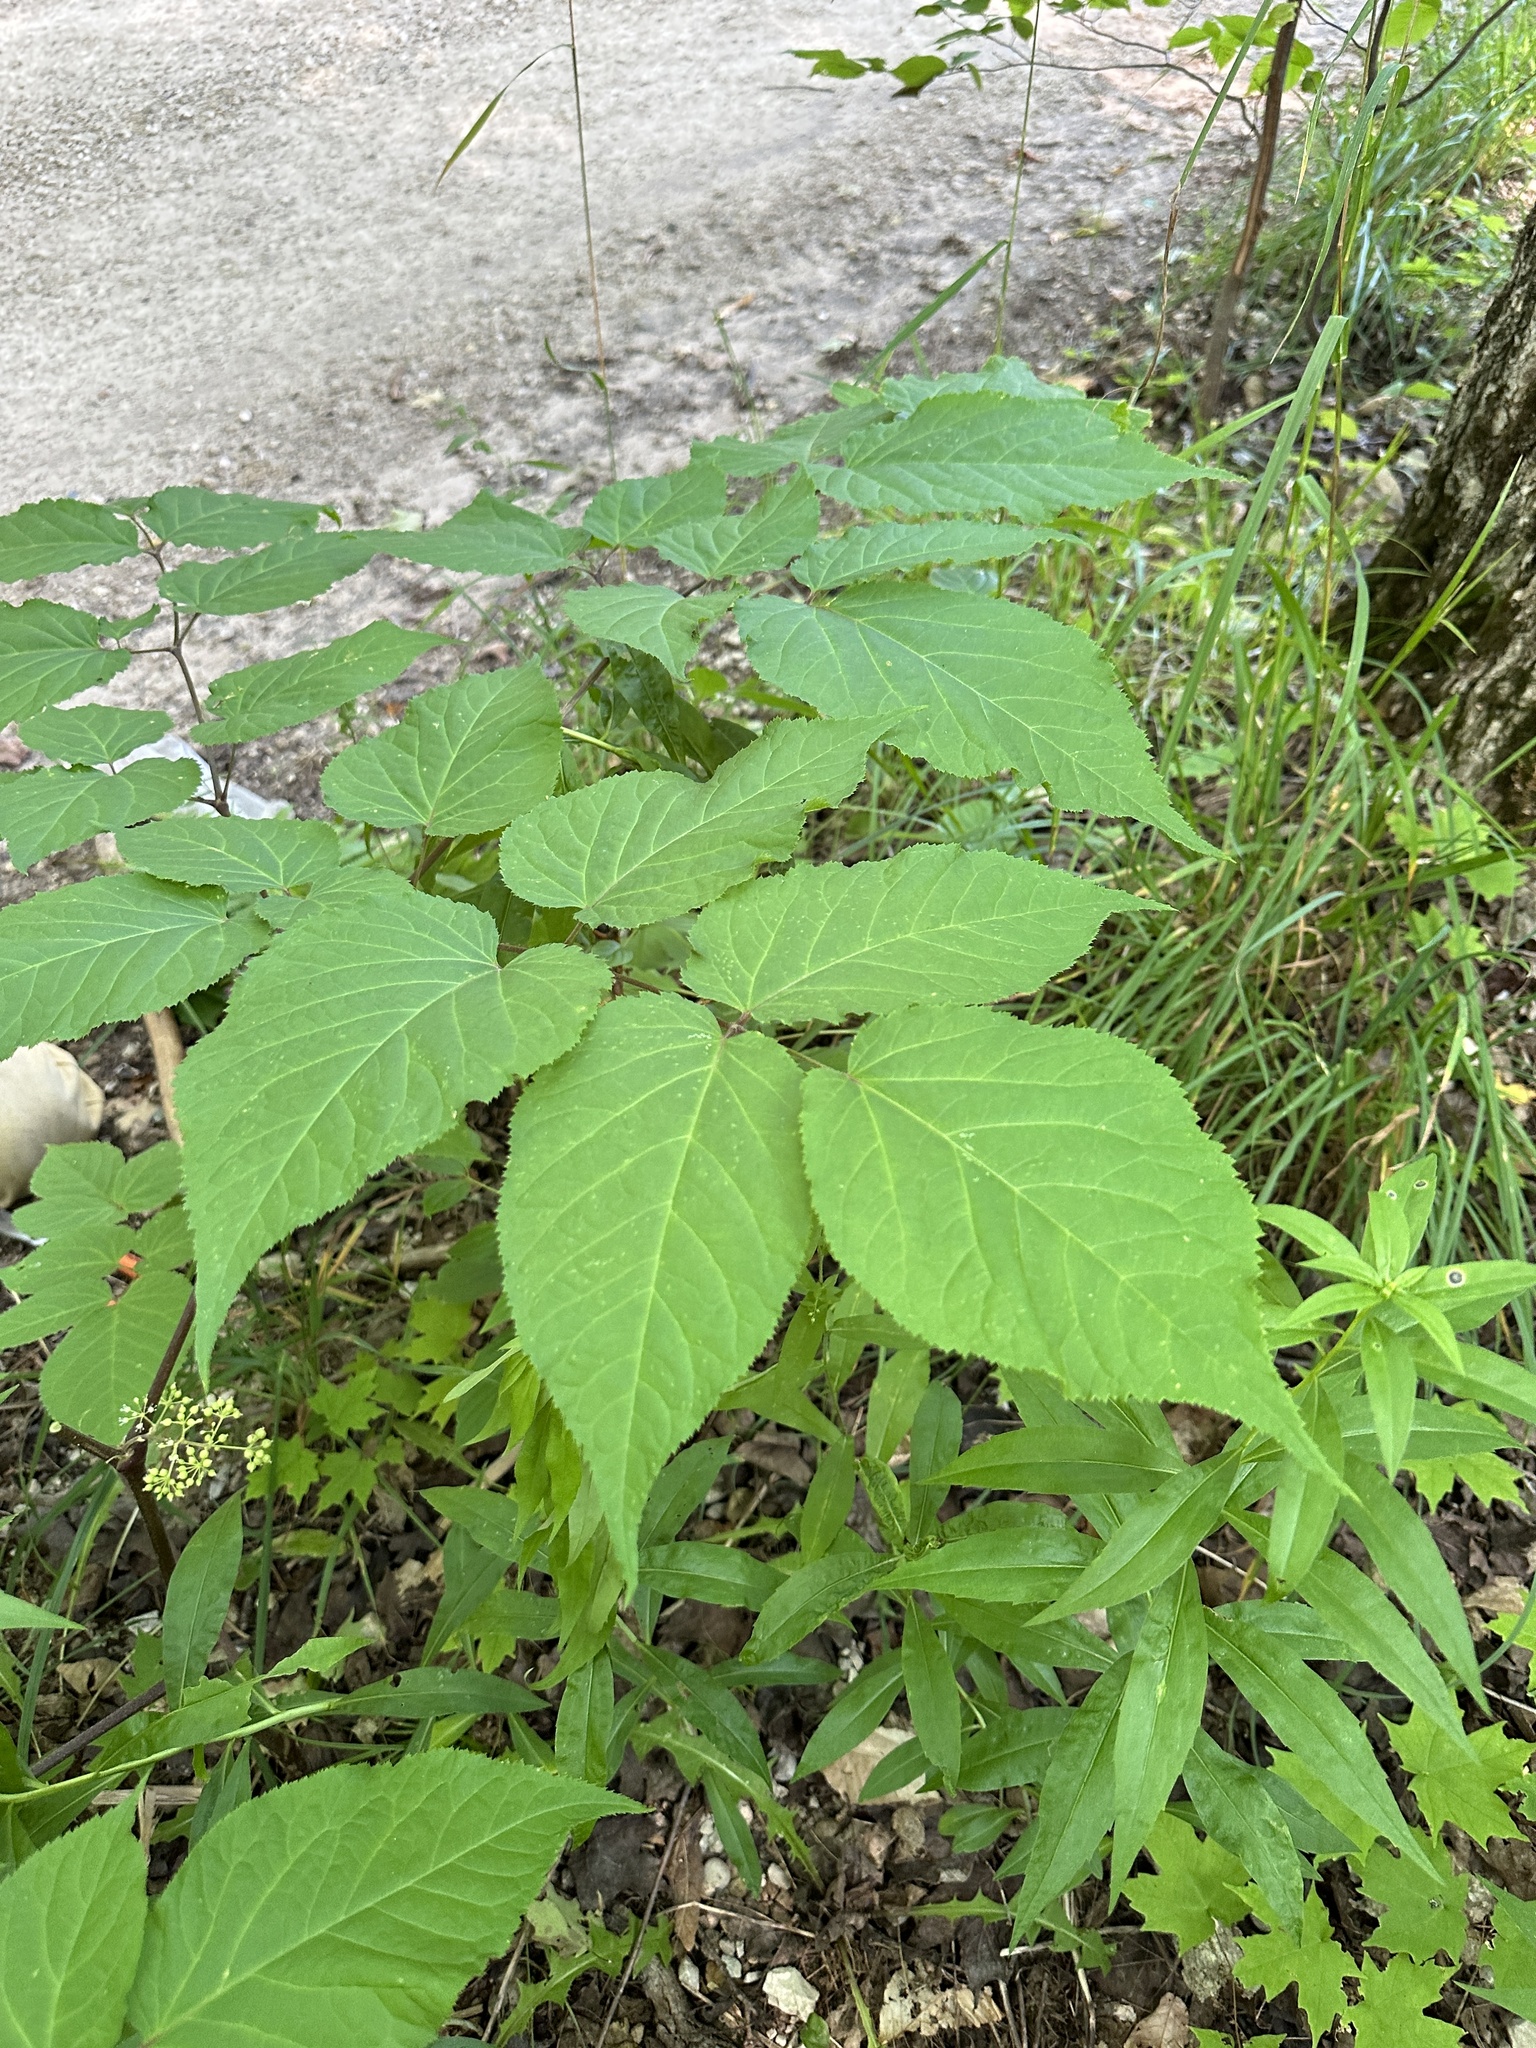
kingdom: Plantae
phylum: Tracheophyta
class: Magnoliopsida
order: Apiales
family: Araliaceae
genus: Aralia
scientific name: Aralia racemosa
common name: American-spikenard
